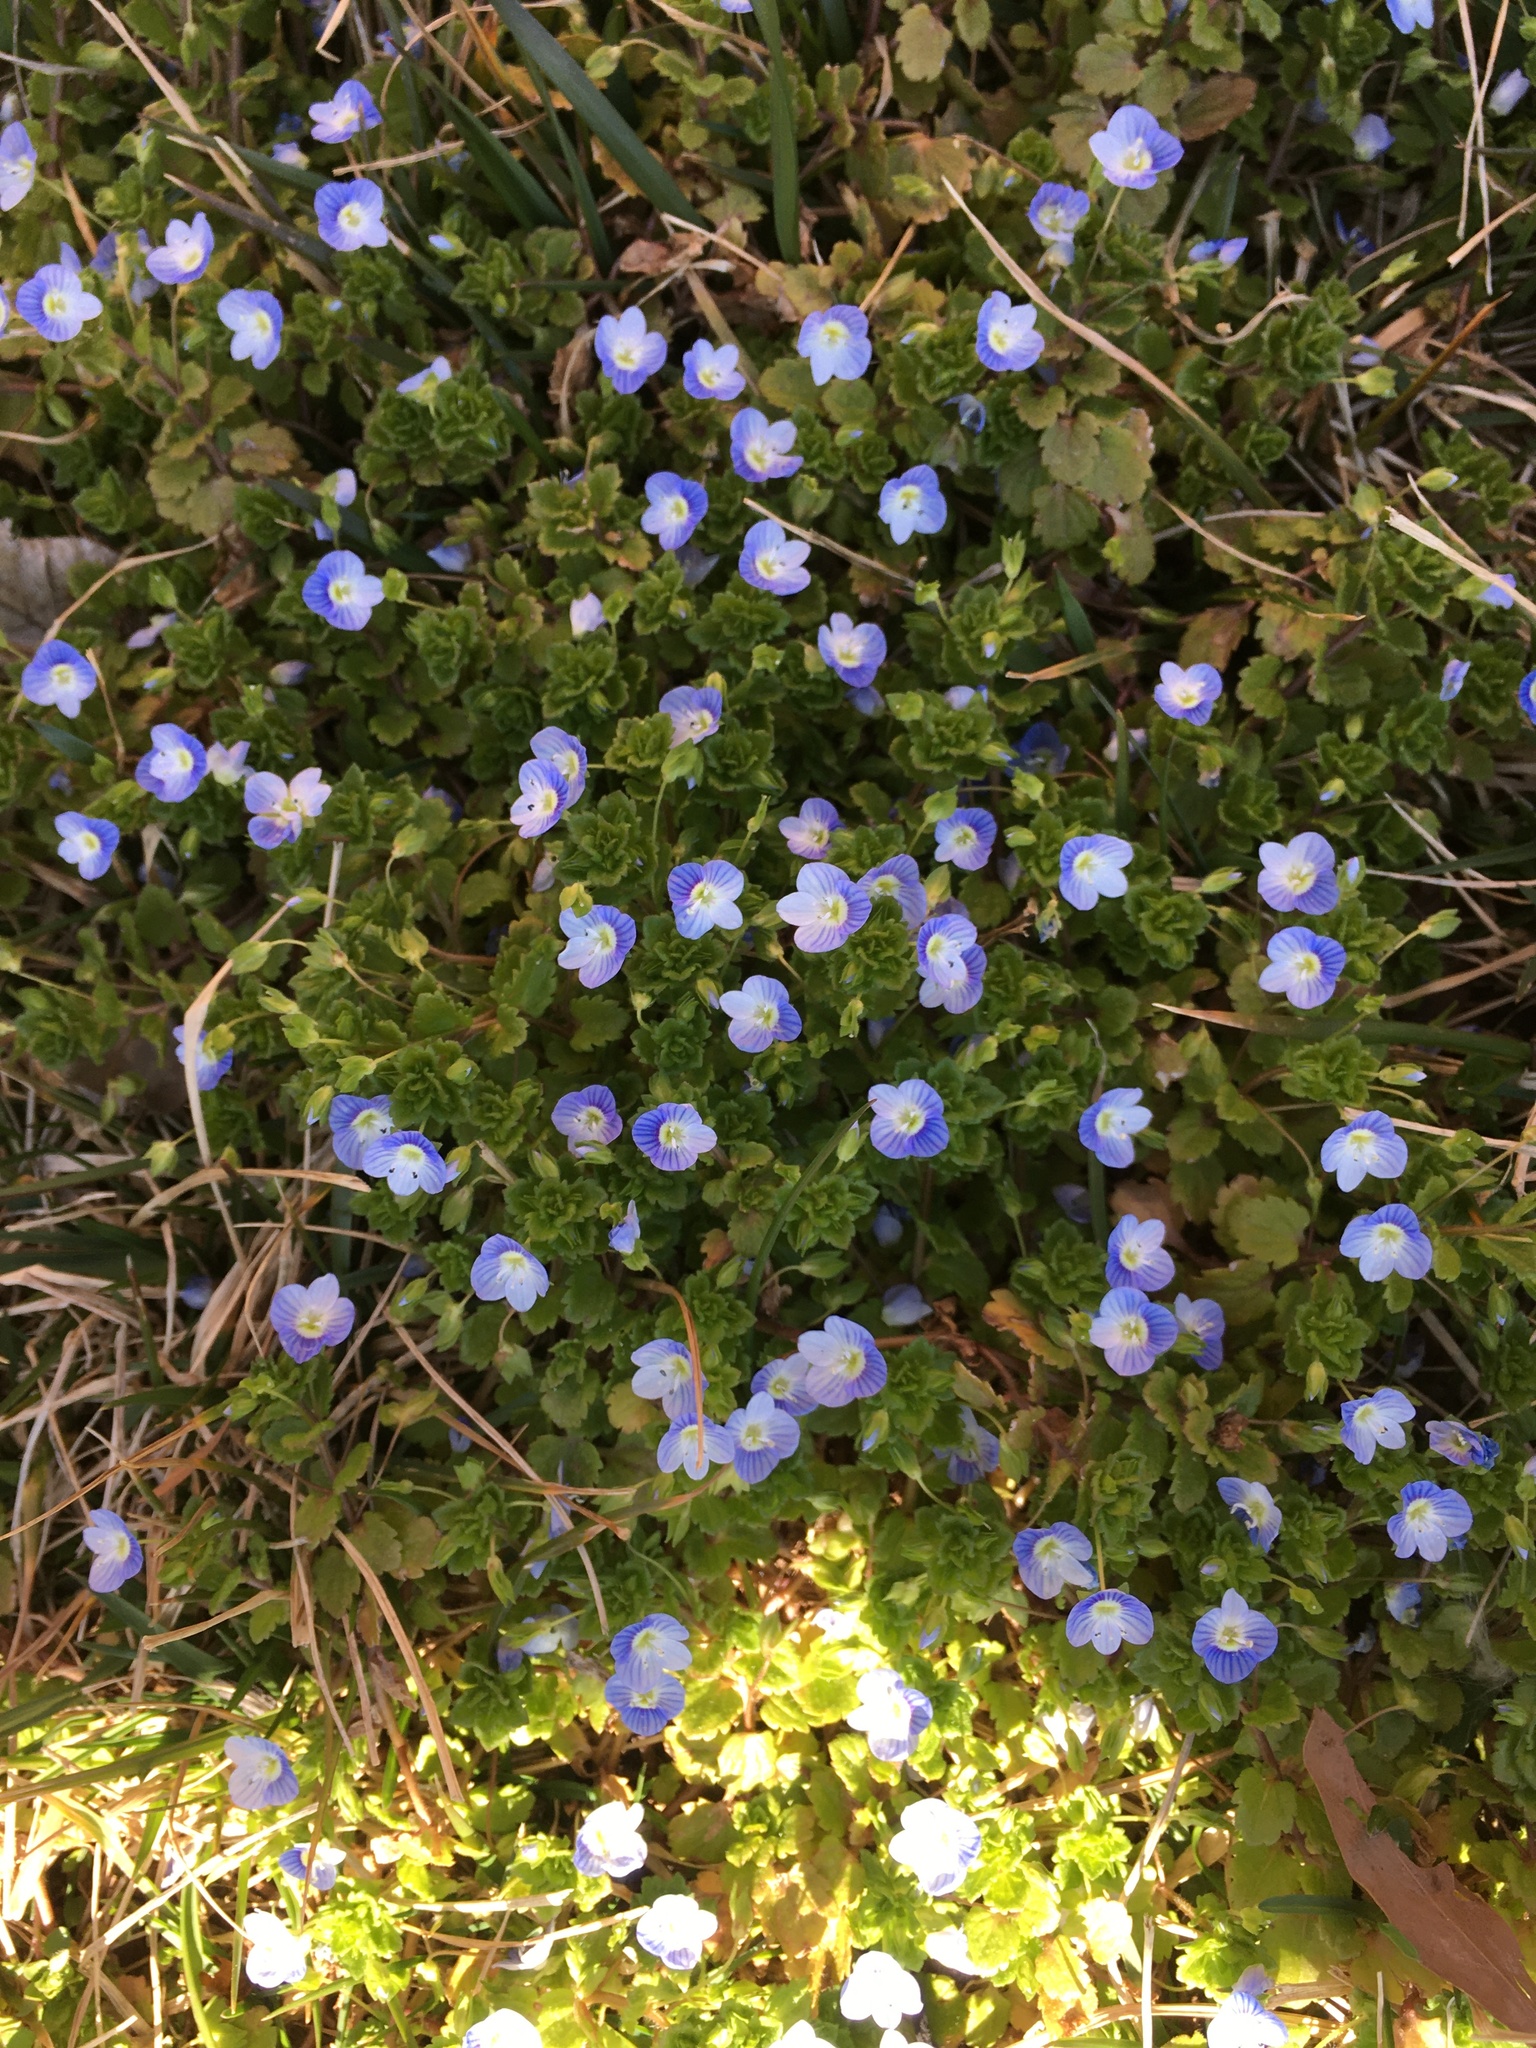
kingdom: Plantae
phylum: Tracheophyta
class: Magnoliopsida
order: Lamiales
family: Plantaginaceae
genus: Veronica
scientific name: Veronica persica
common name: Common field-speedwell
